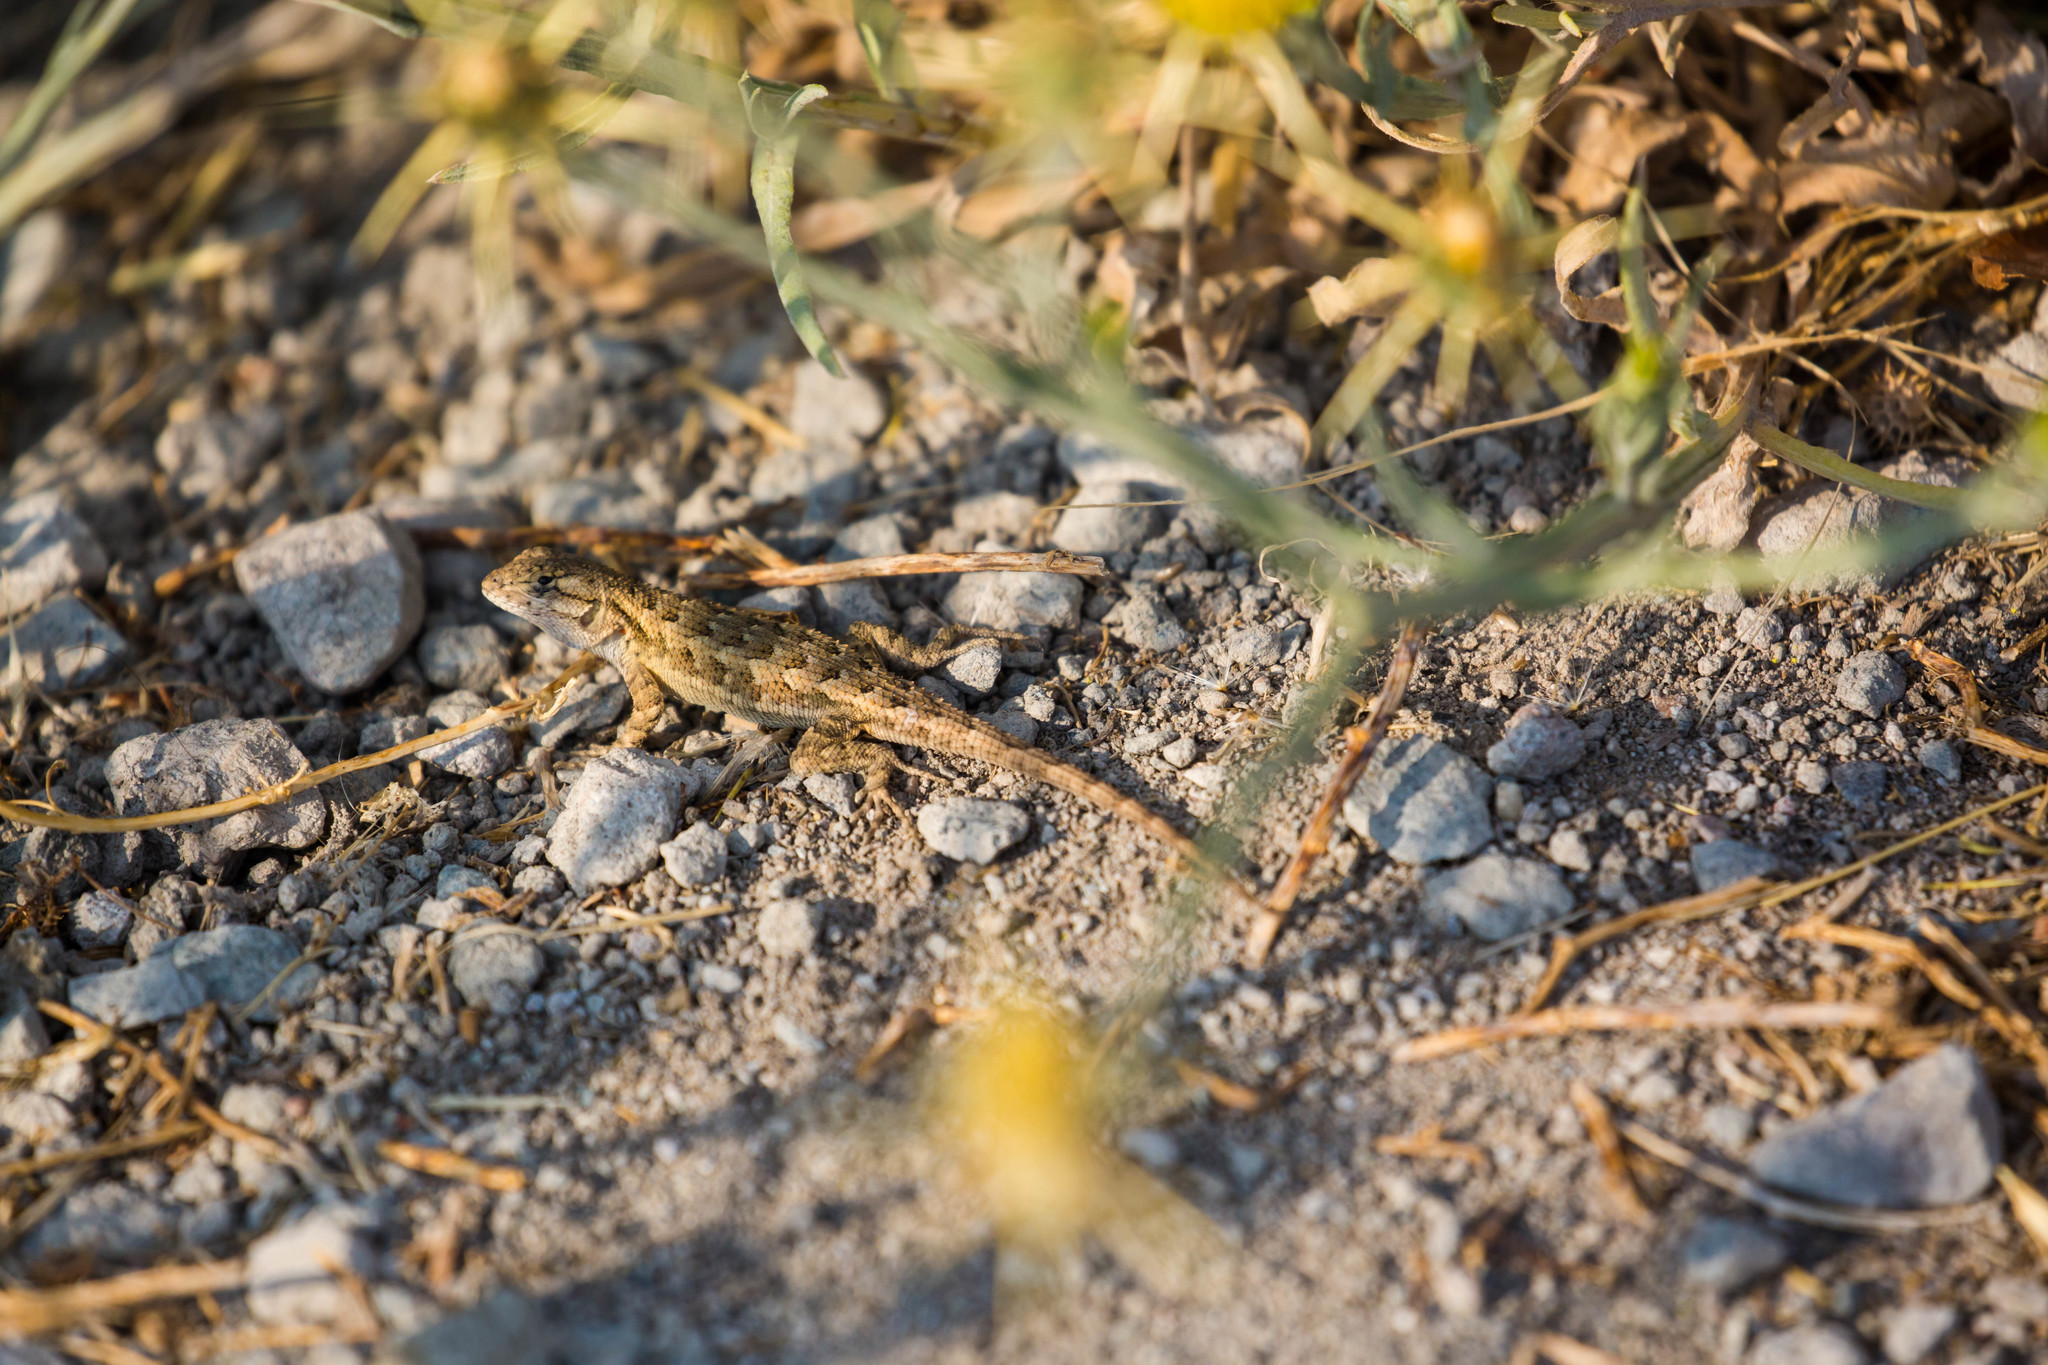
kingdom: Animalia
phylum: Chordata
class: Squamata
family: Phrynosomatidae
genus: Sceloporus
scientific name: Sceloporus occidentalis
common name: Western fence lizard
